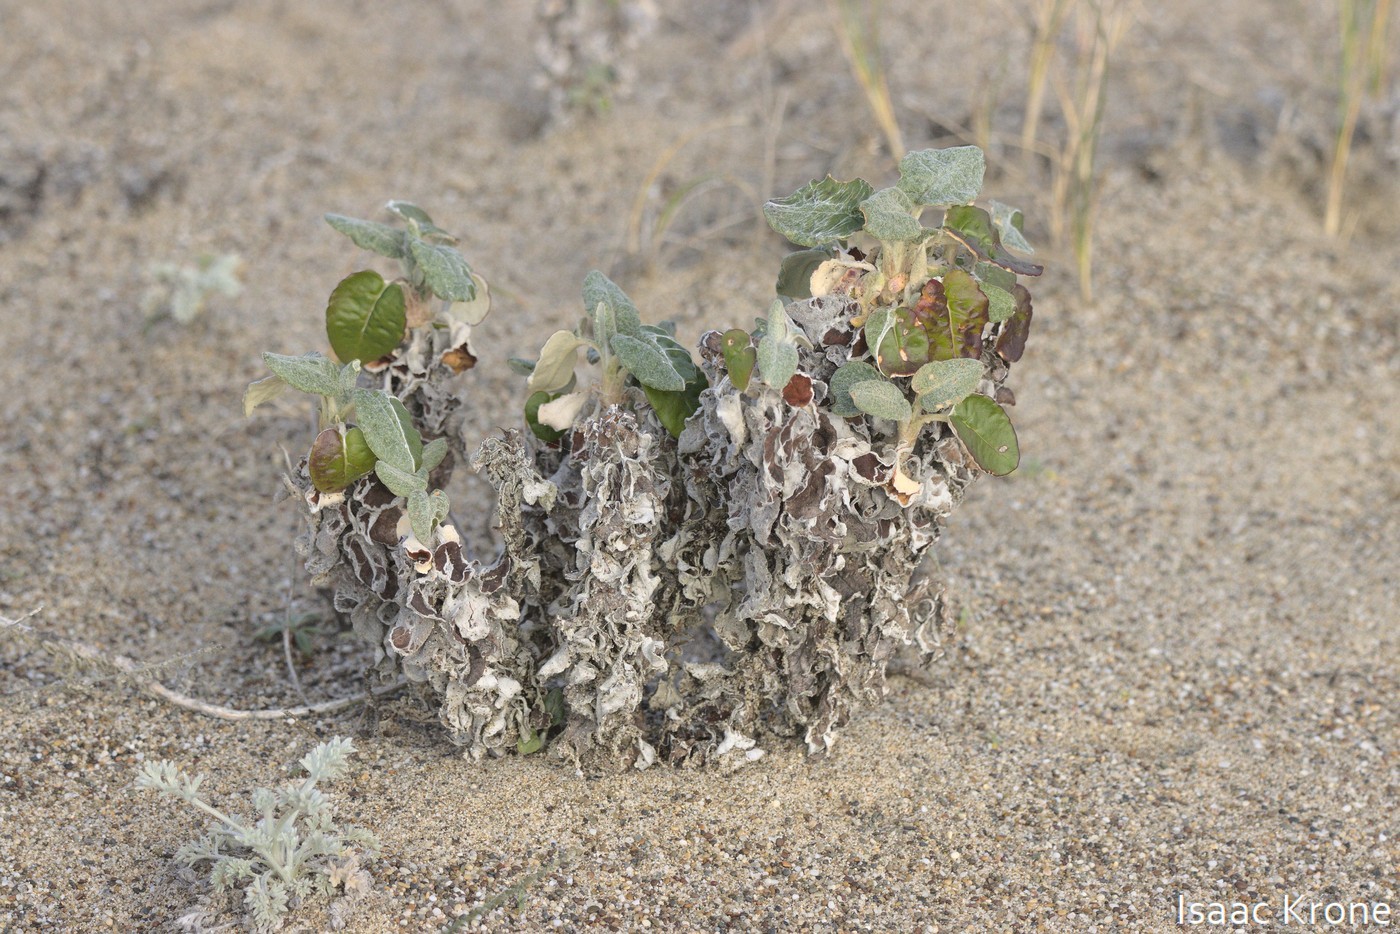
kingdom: Plantae
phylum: Tracheophyta
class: Magnoliopsida
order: Caryophyllales
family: Polygonaceae
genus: Eriogonum
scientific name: Eriogonum latifolium
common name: Seaside wild buckwheat
